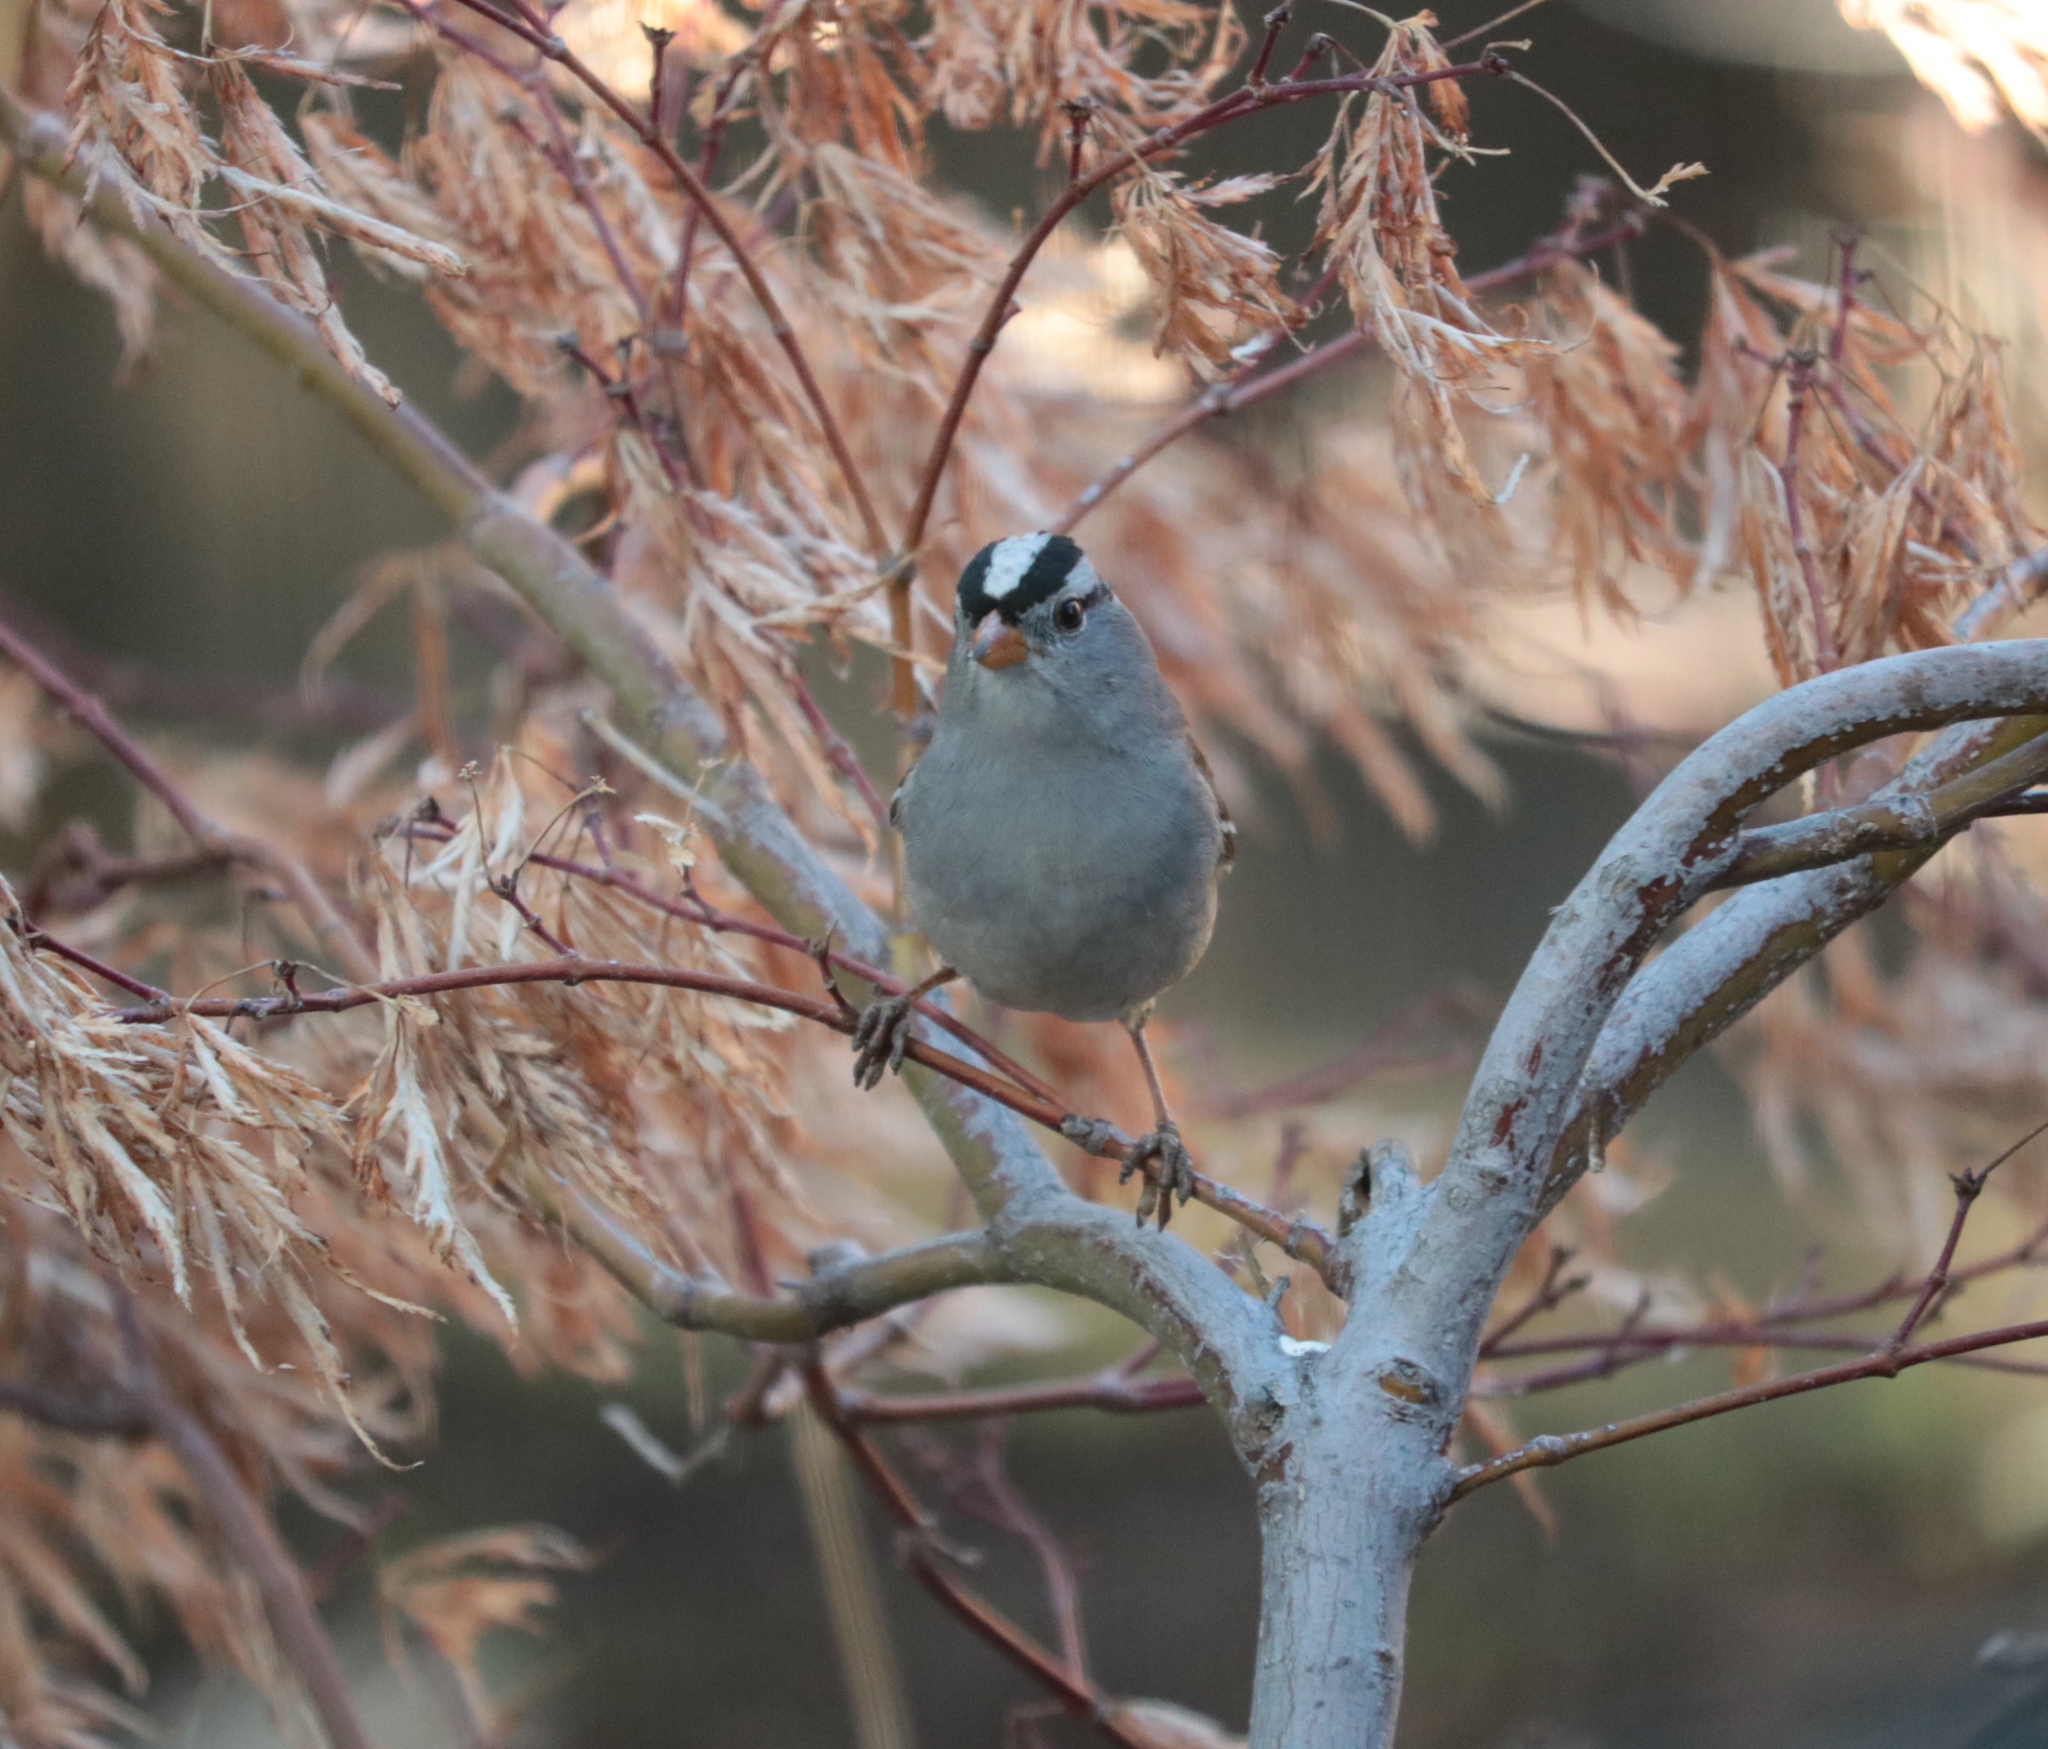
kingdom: Animalia
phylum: Chordata
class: Aves
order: Passeriformes
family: Passerellidae
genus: Zonotrichia
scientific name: Zonotrichia leucophrys
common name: White-crowned sparrow
